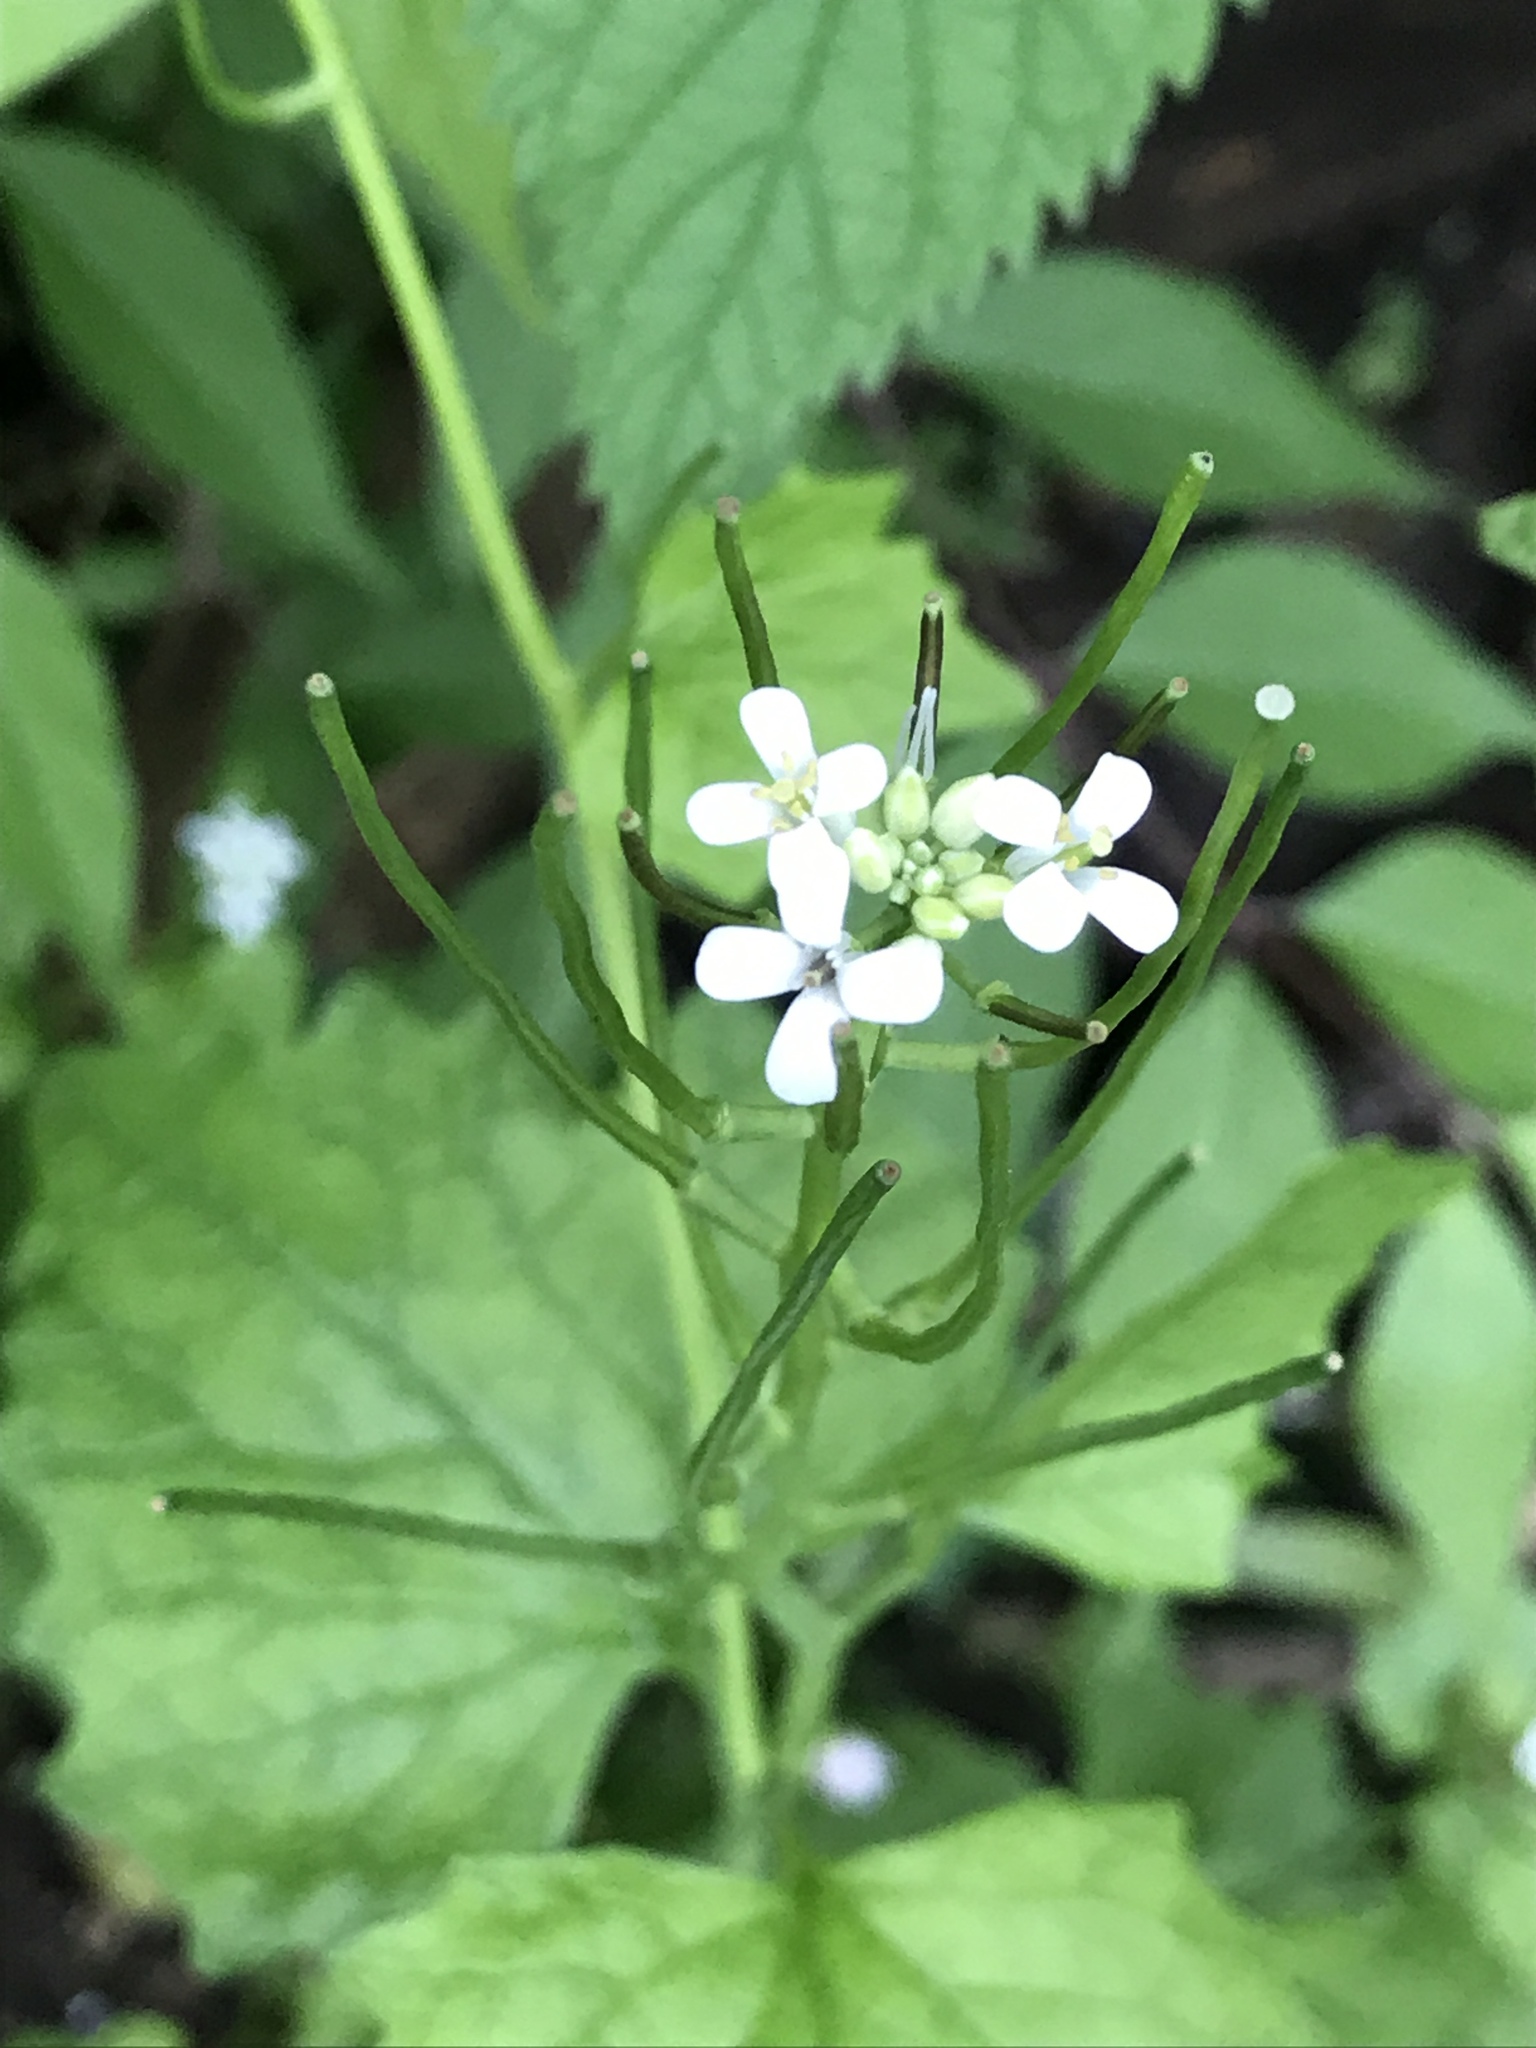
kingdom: Plantae
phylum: Tracheophyta
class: Magnoliopsida
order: Brassicales
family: Brassicaceae
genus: Alliaria
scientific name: Alliaria petiolata
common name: Garlic mustard
